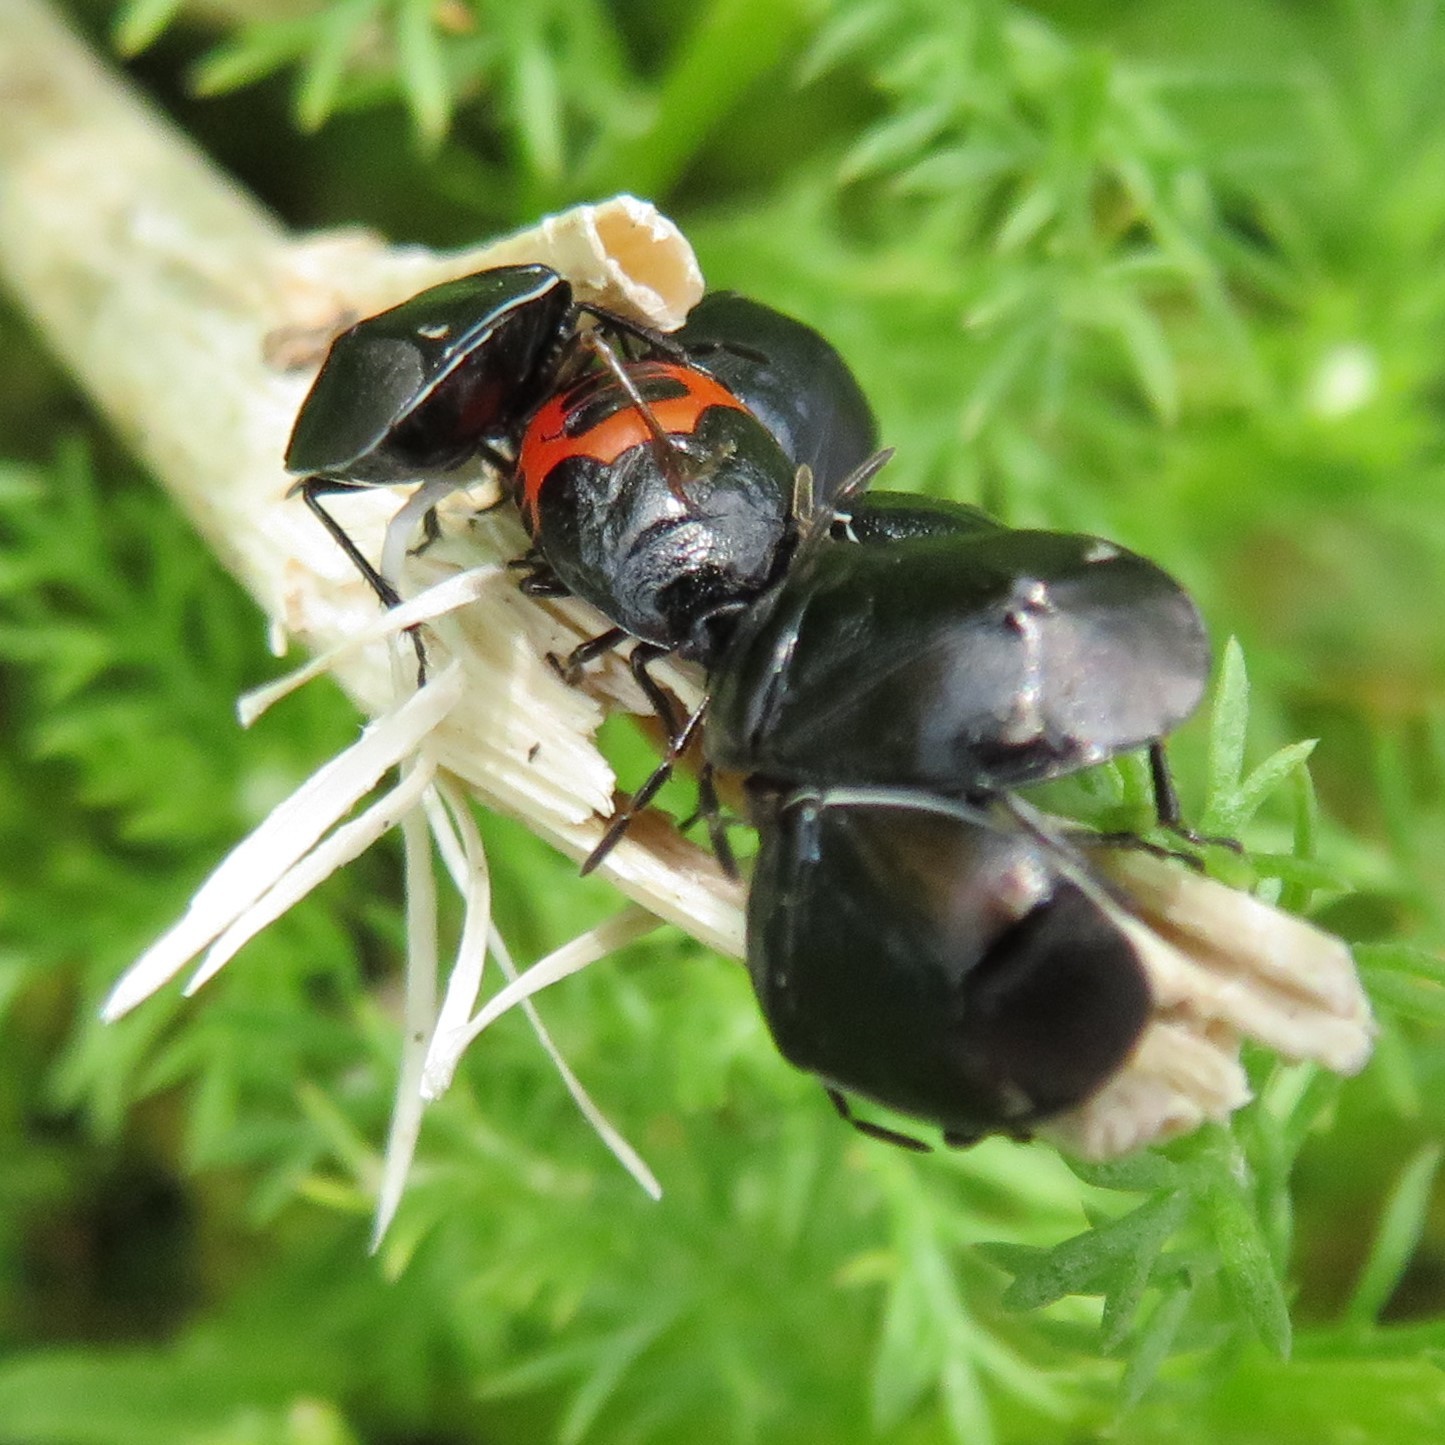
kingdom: Animalia
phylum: Arthropoda
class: Insecta
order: Hemiptera
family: Cydnidae
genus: Sehirus
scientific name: Sehirus cinctus
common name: White-margined burrower bug
